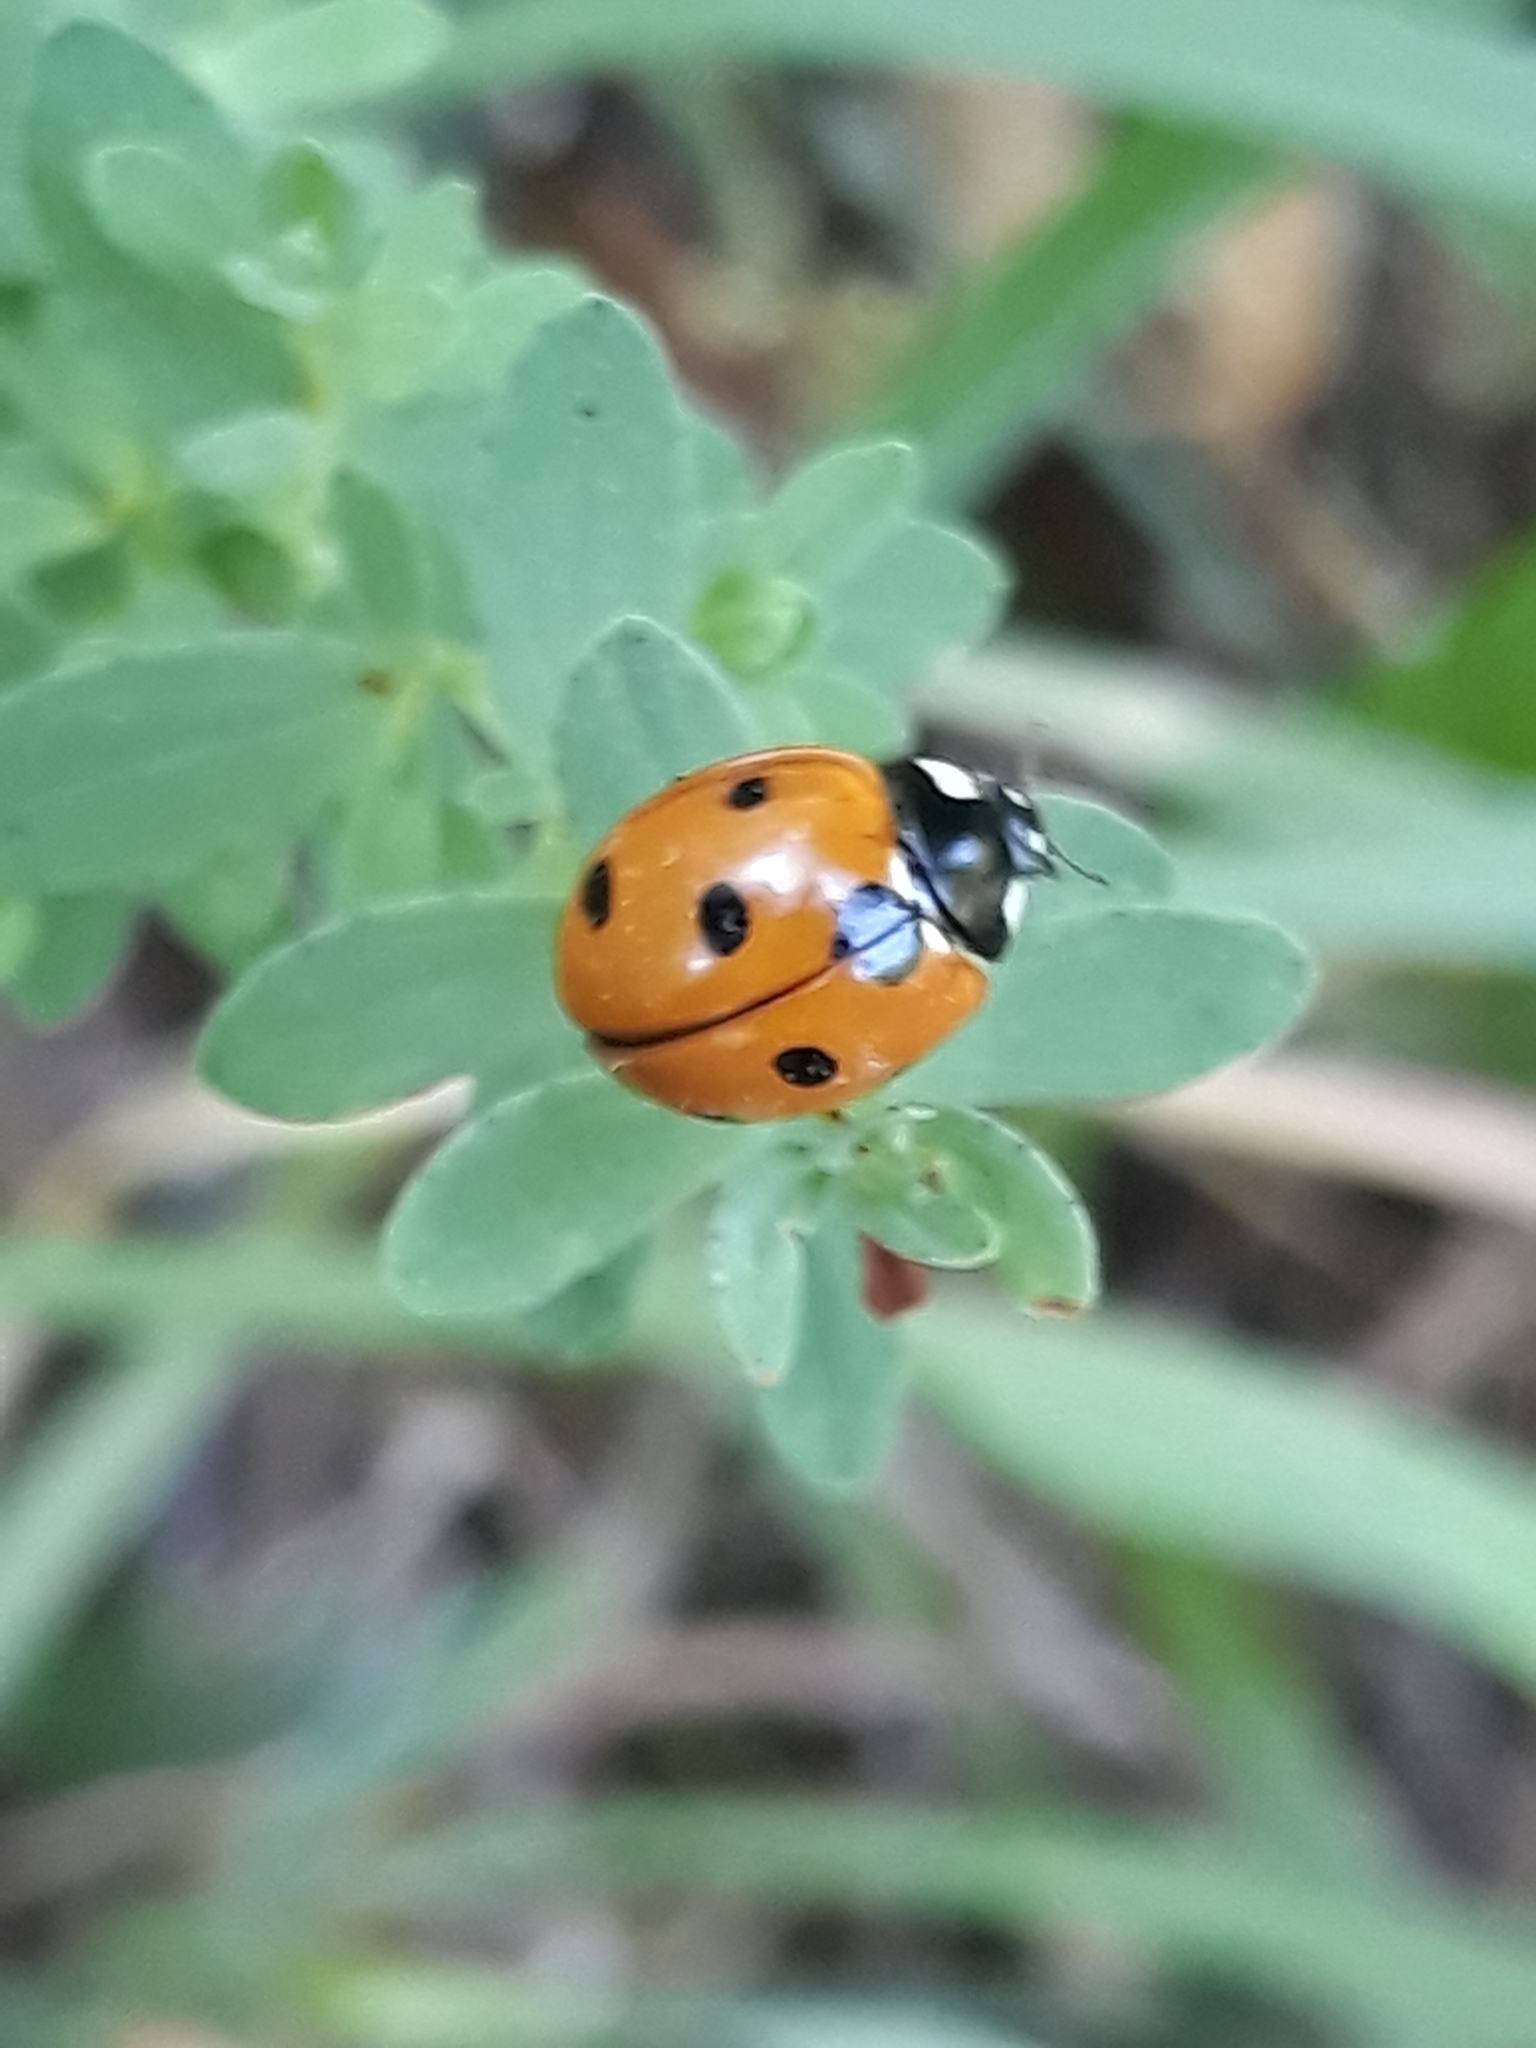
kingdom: Animalia
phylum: Arthropoda
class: Insecta
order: Coleoptera
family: Coccinellidae
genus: Coccinella
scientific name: Coccinella septempunctata
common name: Sevenspotted lady beetle
